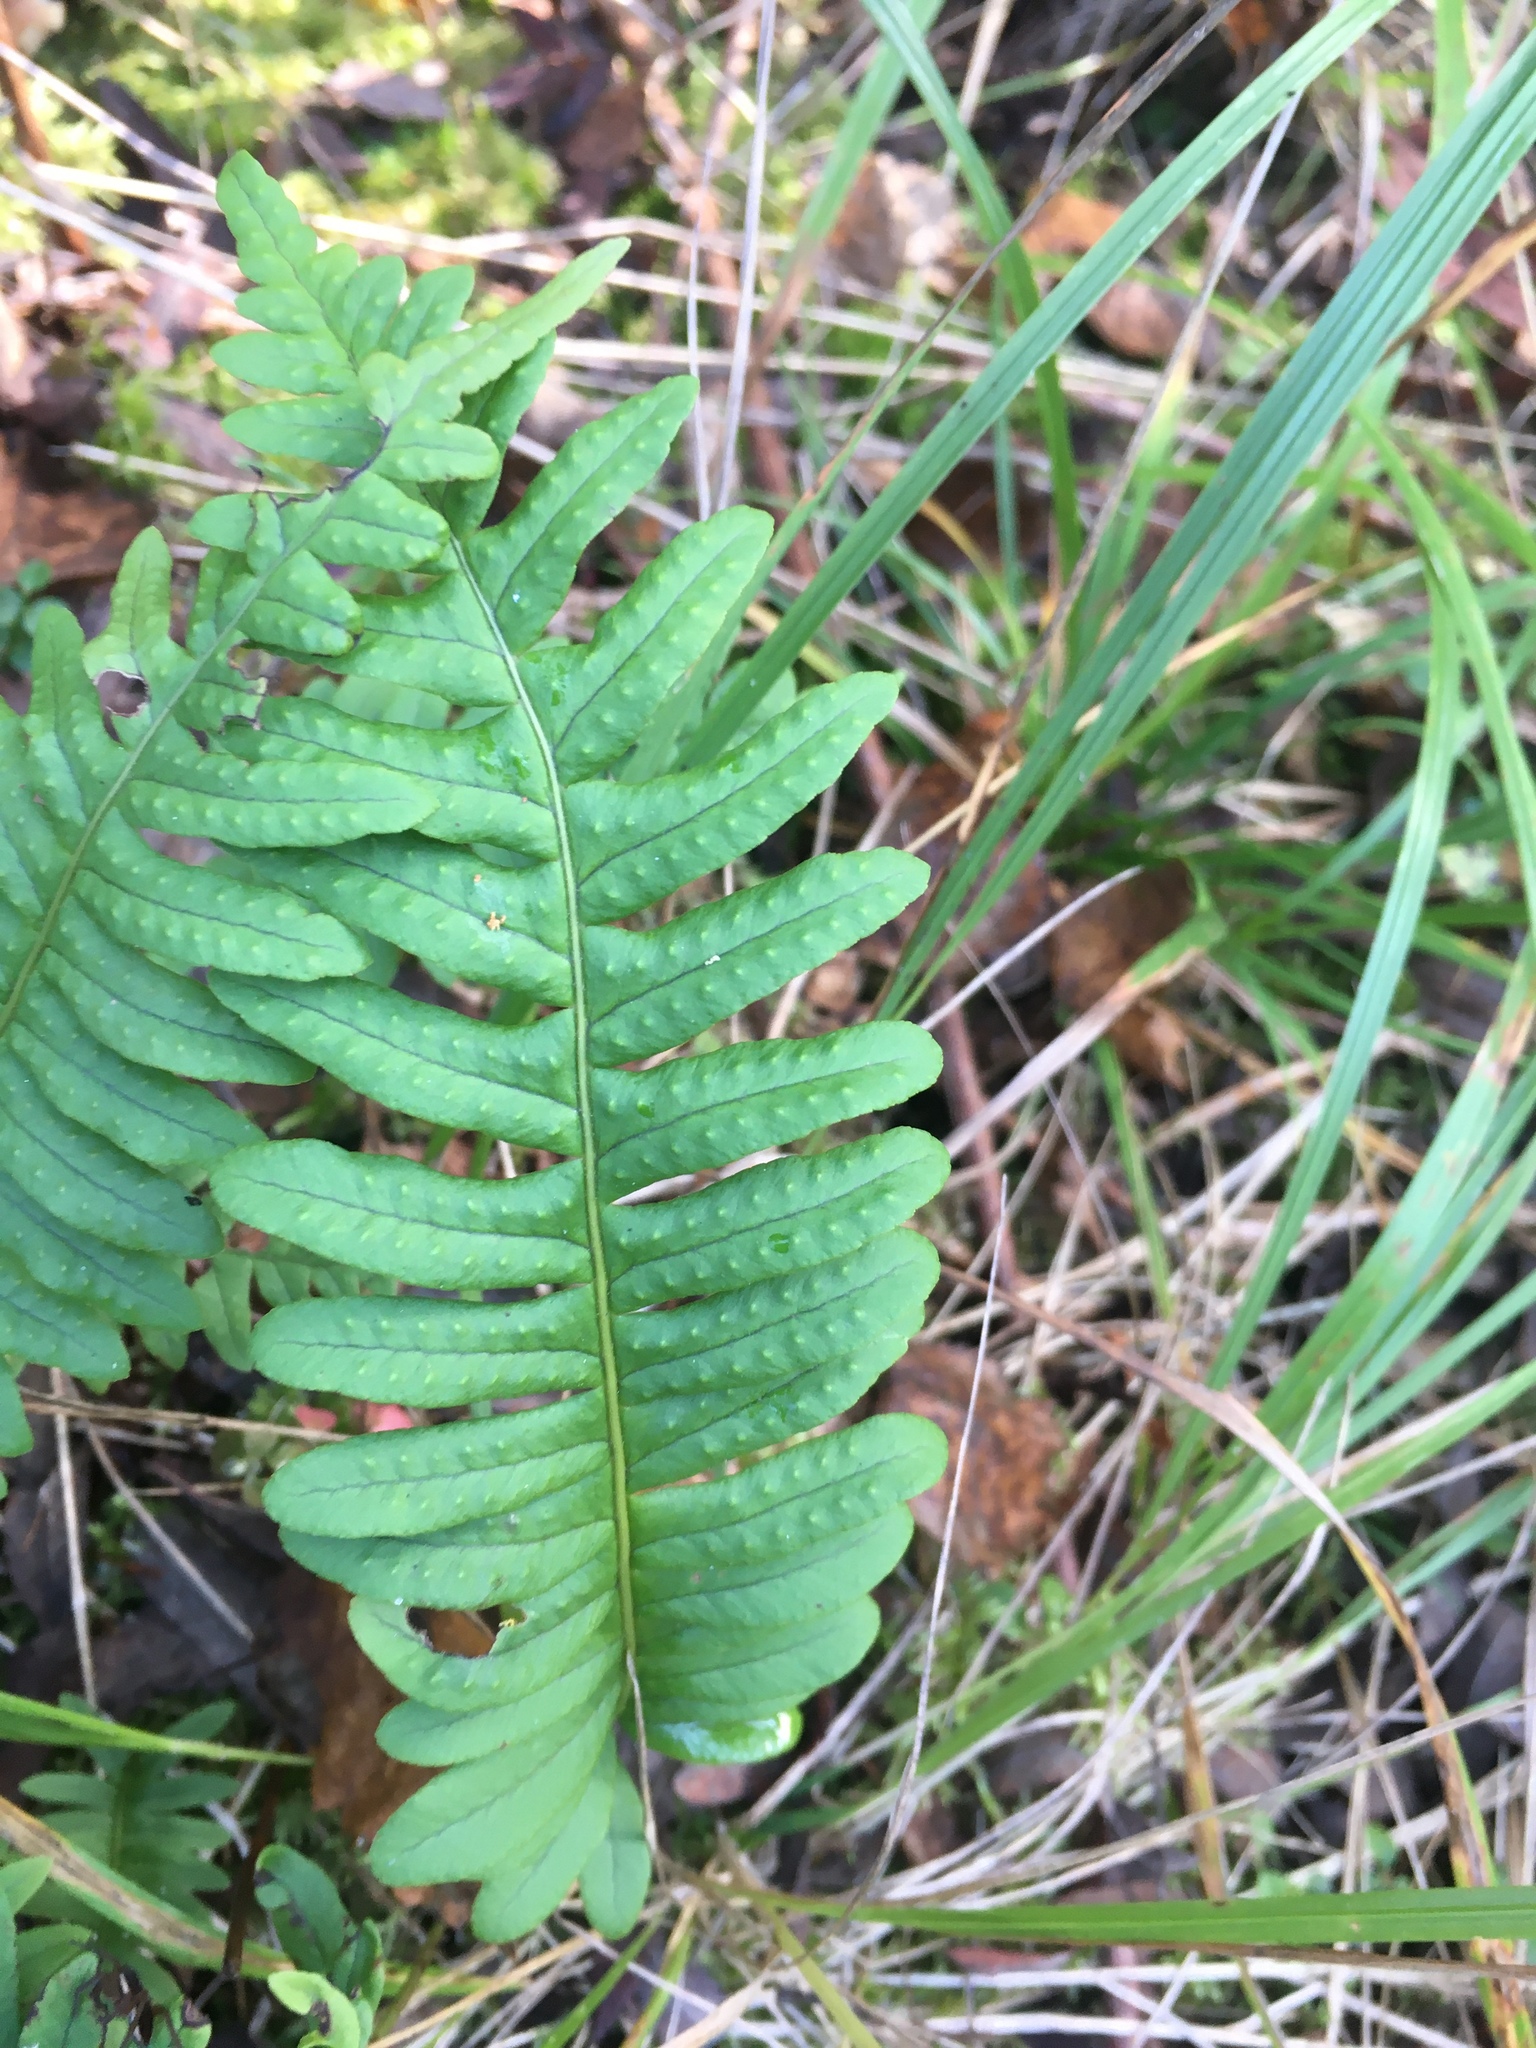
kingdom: Plantae
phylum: Tracheophyta
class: Polypodiopsida
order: Polypodiales
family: Polypodiaceae
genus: Polypodium
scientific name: Polypodium vulgare
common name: Common polypody
